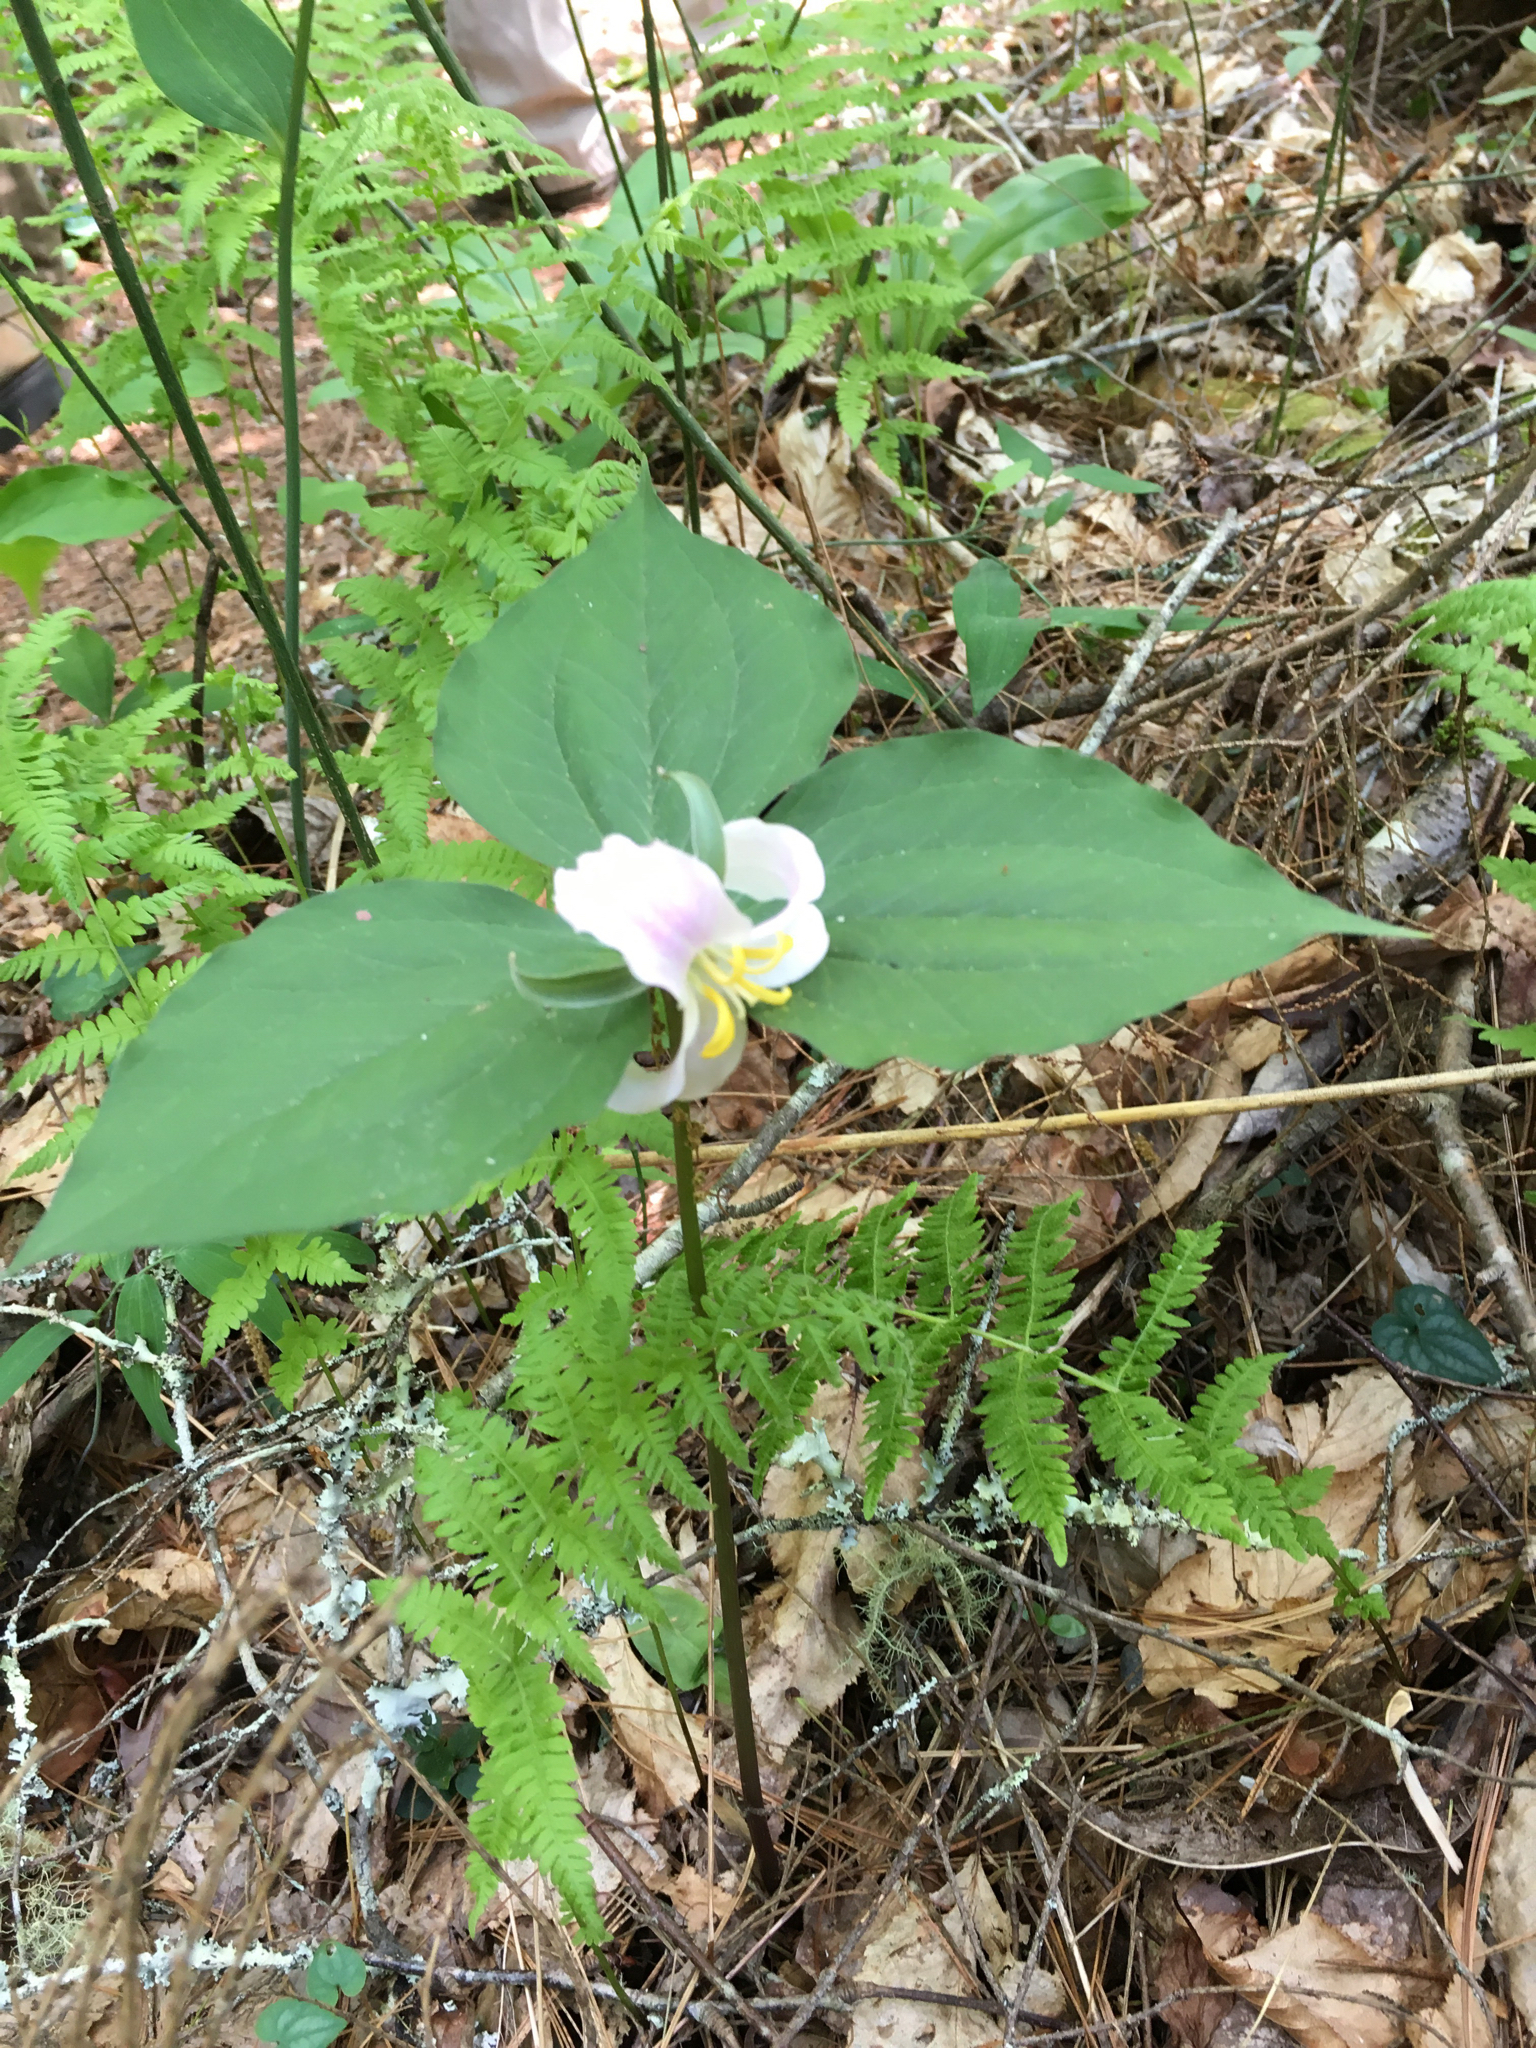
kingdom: Plantae
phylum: Tracheophyta
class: Liliopsida
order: Liliales
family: Melanthiaceae
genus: Trillium
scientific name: Trillium catesbaei
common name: Bashful trillium
